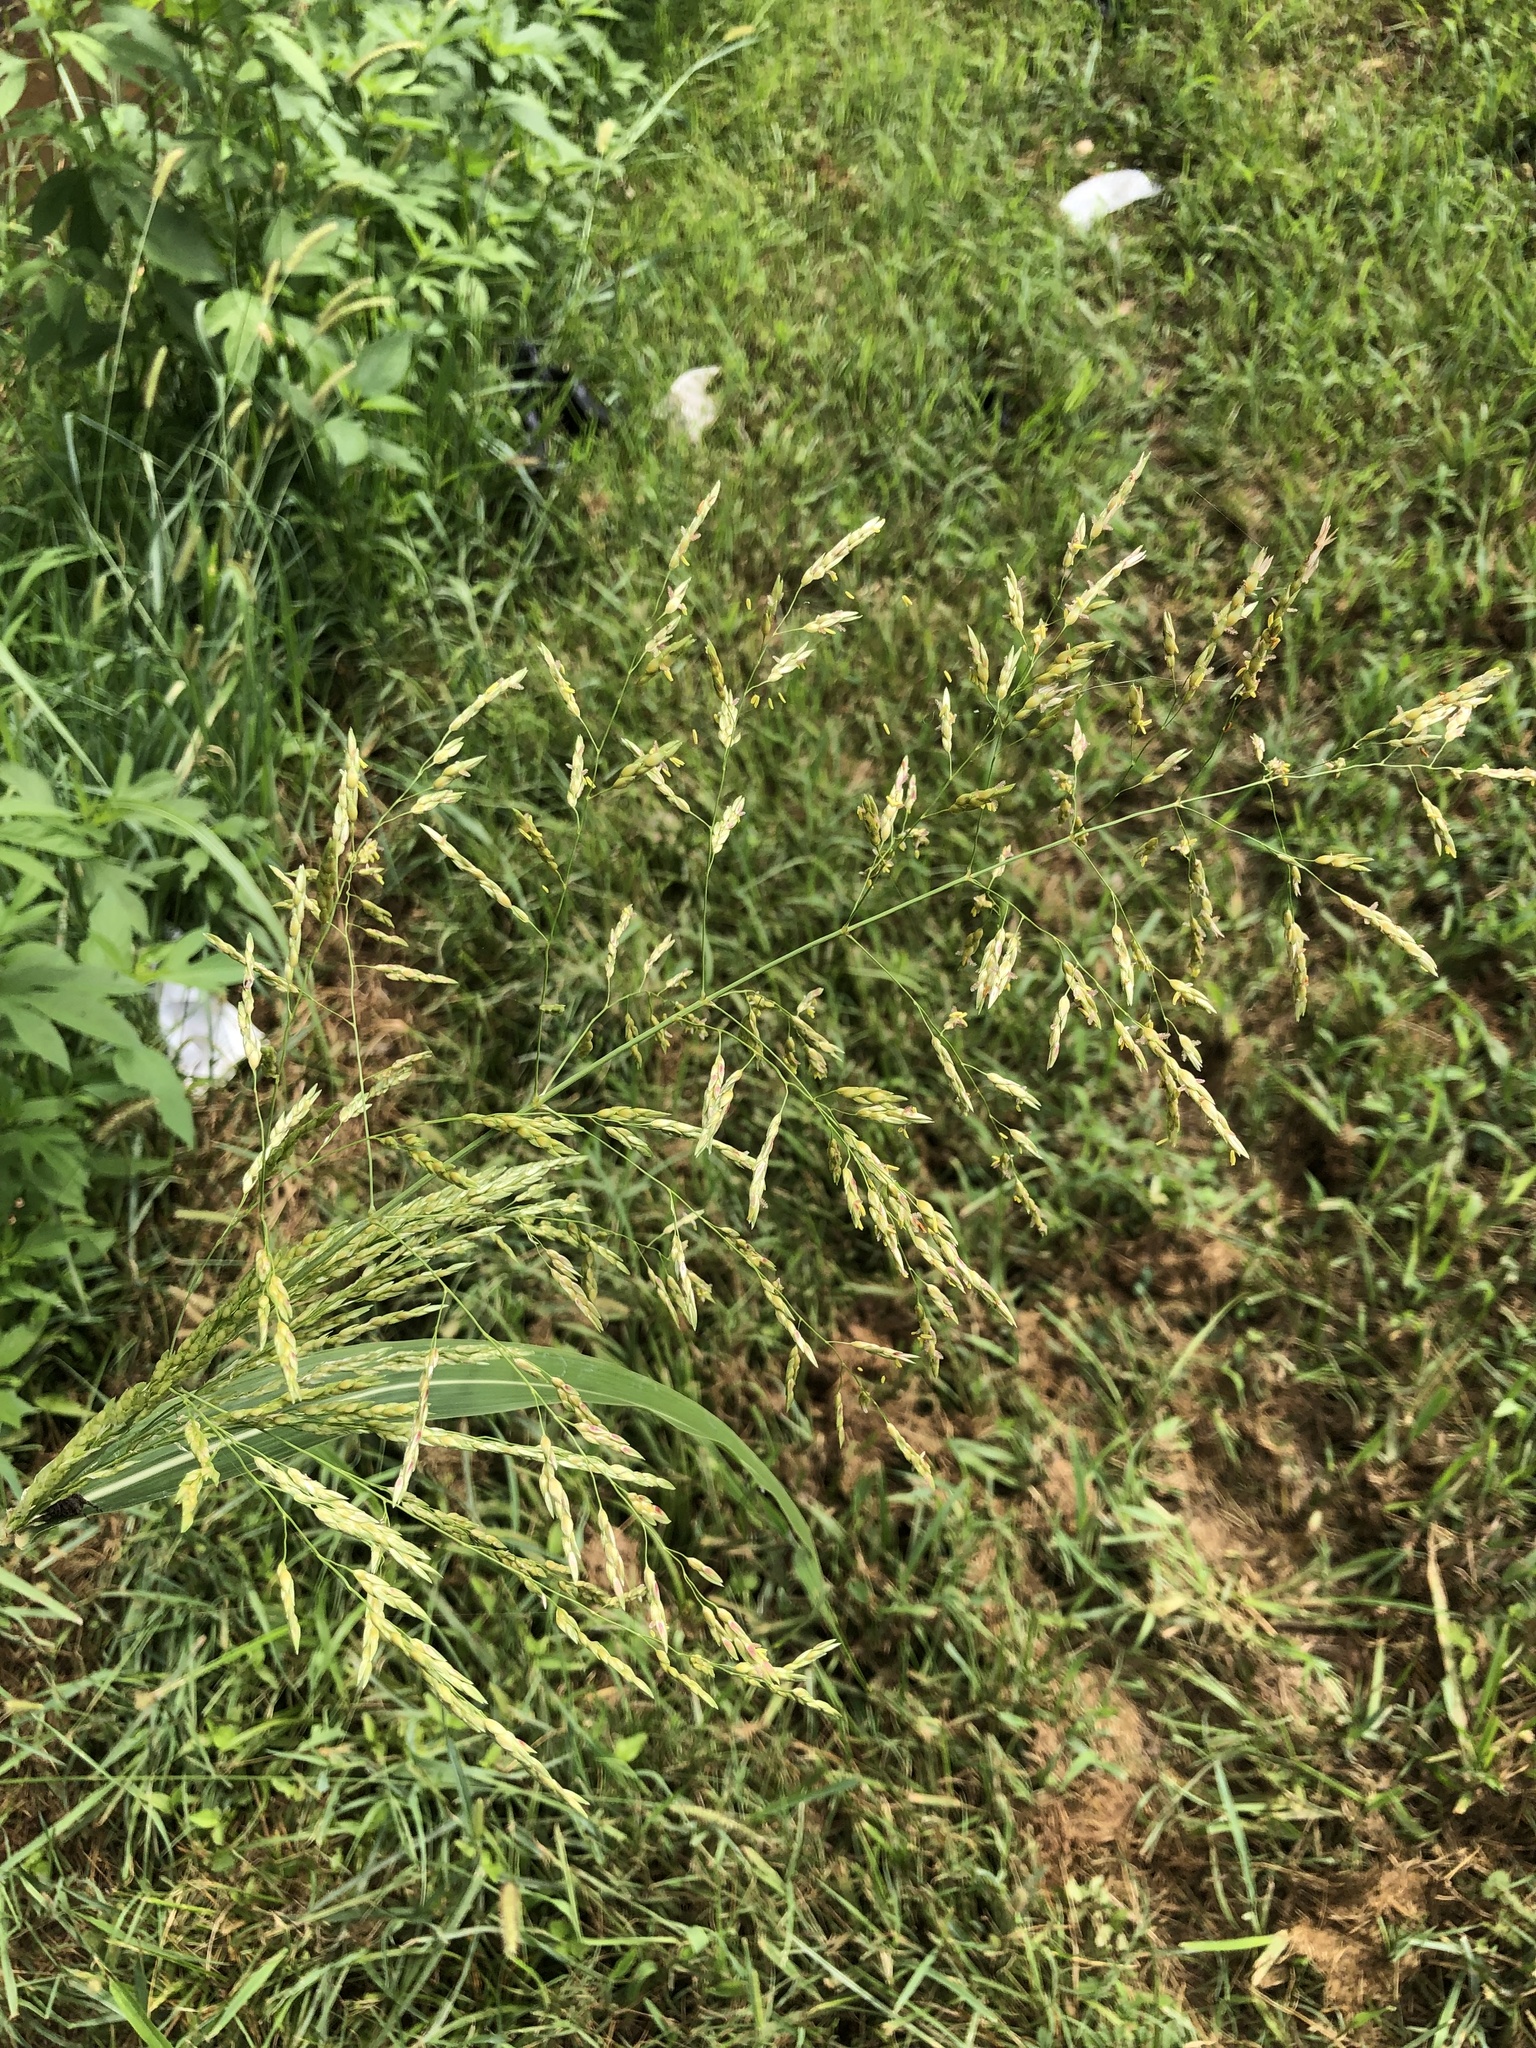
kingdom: Plantae
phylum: Tracheophyta
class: Liliopsida
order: Poales
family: Poaceae
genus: Sorghum
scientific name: Sorghum halepense
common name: Johnson-grass
